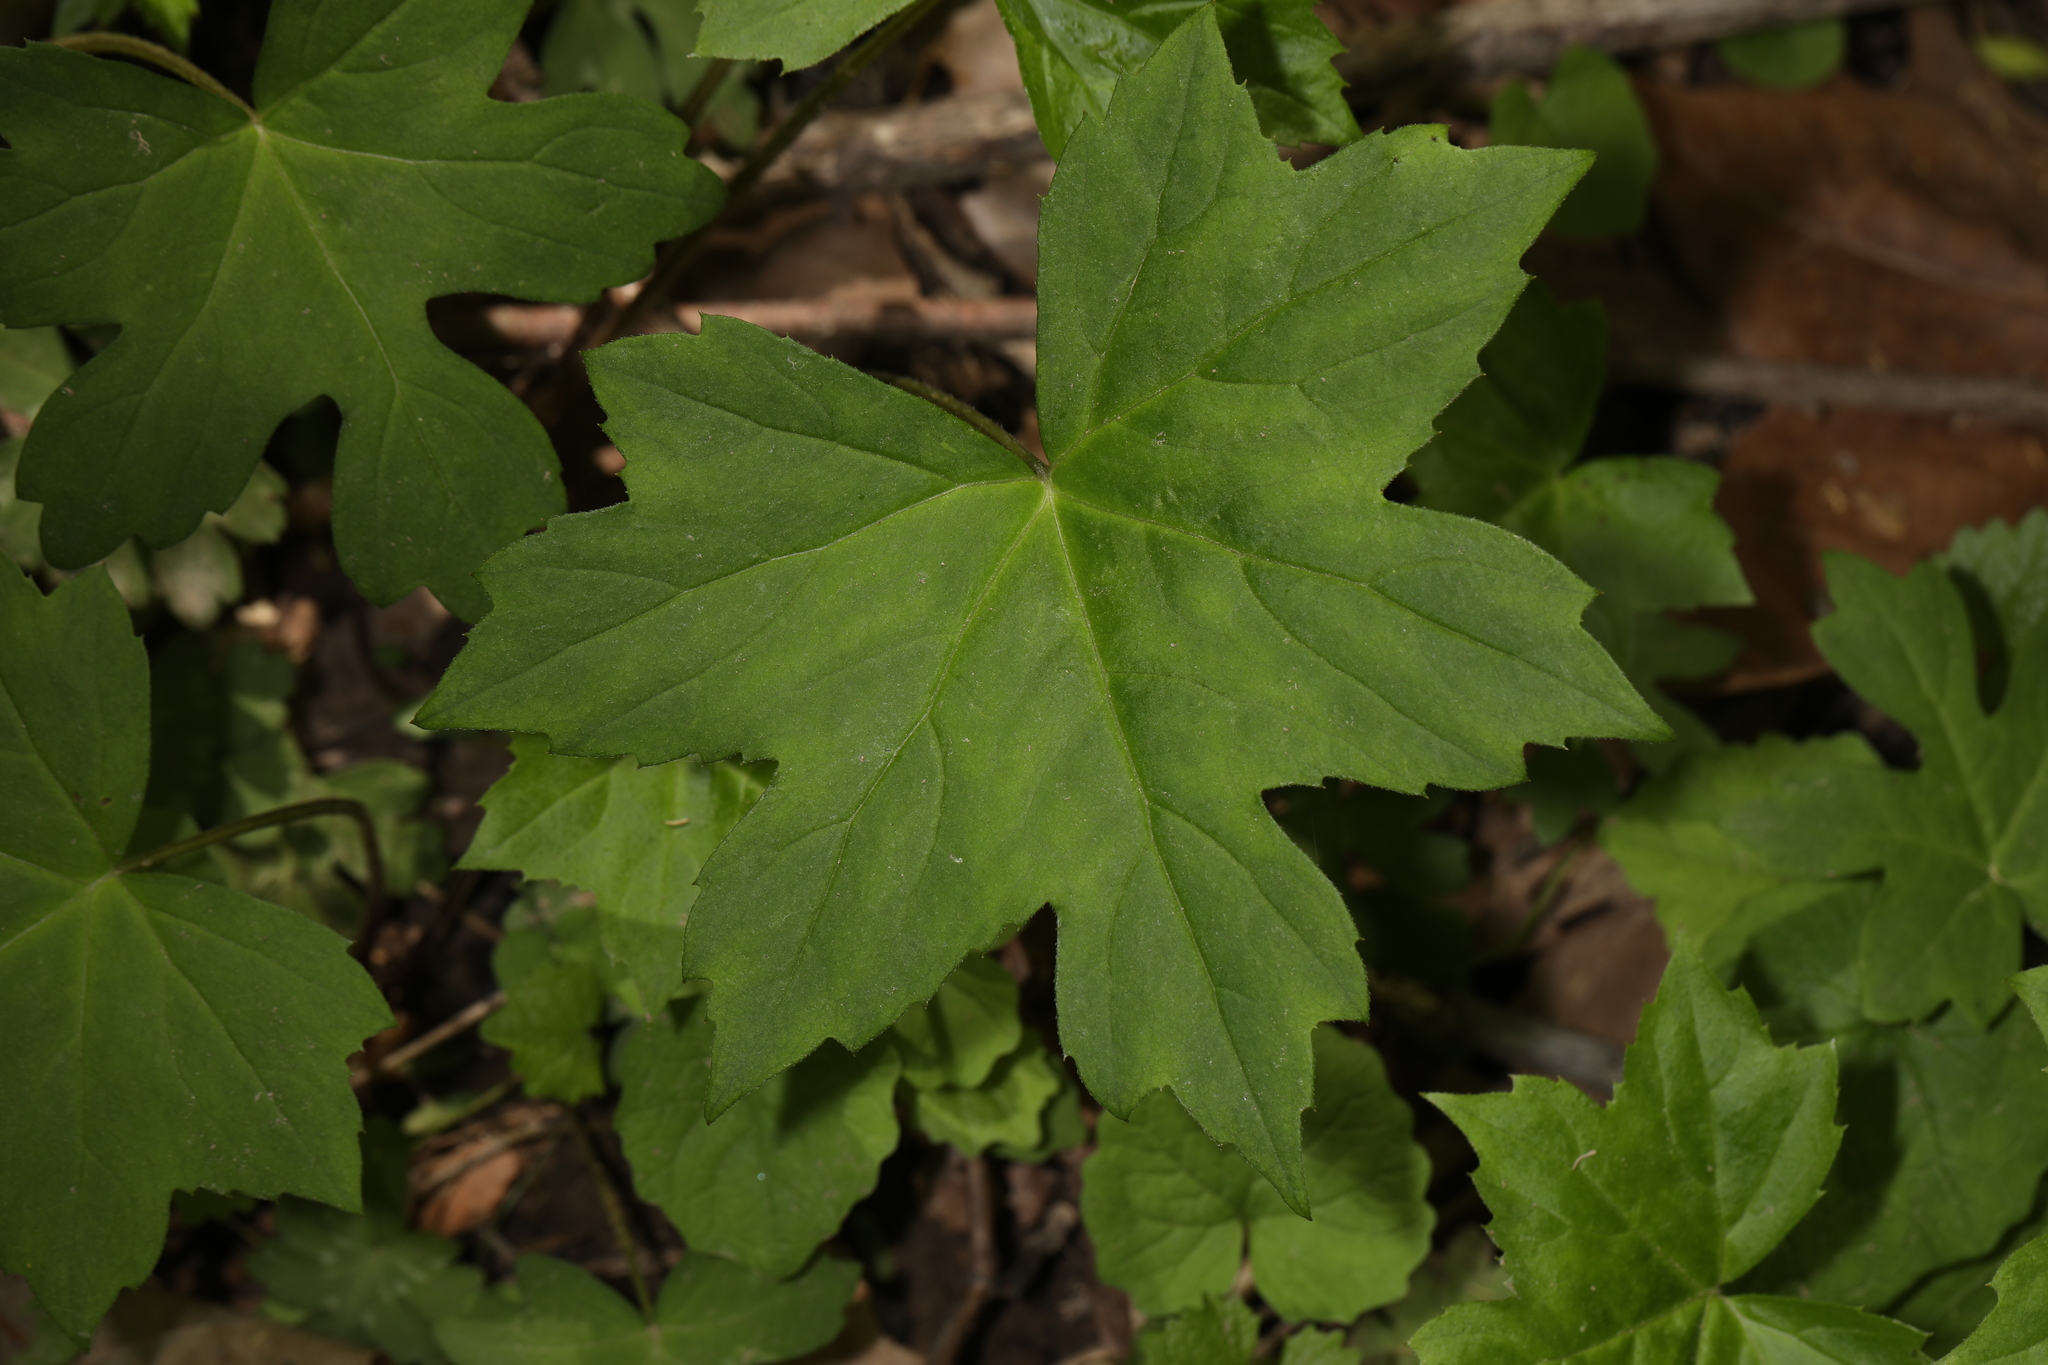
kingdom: Plantae
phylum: Tracheophyta
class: Magnoliopsida
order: Boraginales
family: Hydrophyllaceae
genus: Hydrophyllum
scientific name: Hydrophyllum canadense
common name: Canada waterleaf
